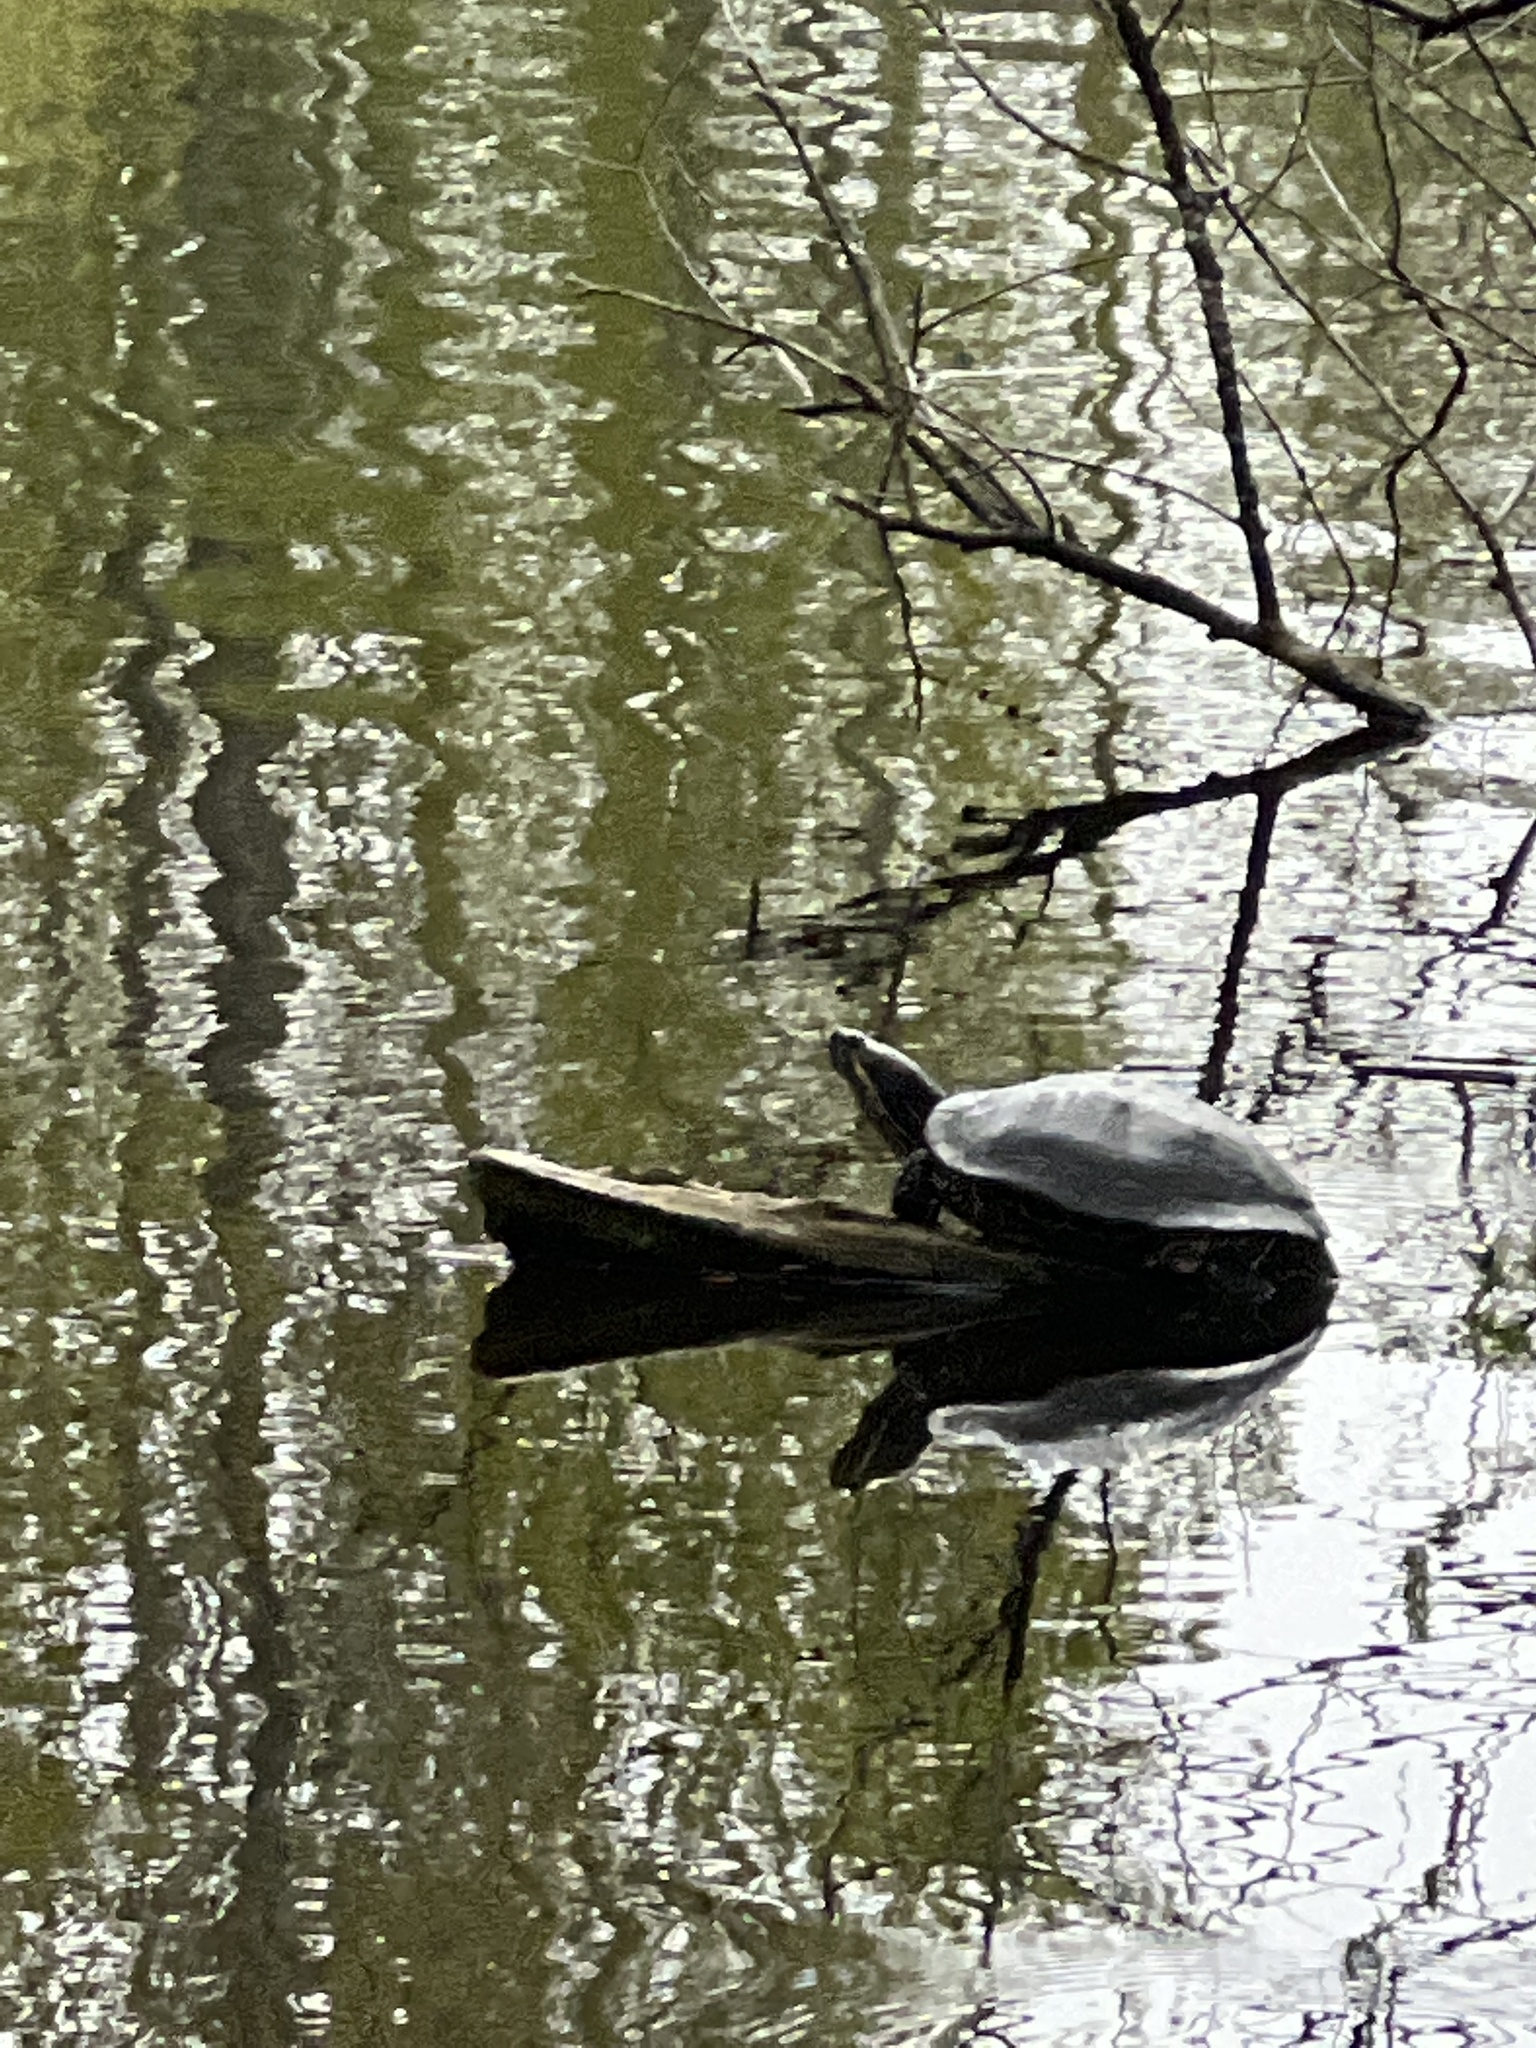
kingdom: Animalia
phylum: Chordata
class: Testudines
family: Emydidae
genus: Trachemys
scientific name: Trachemys scripta
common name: Slider
